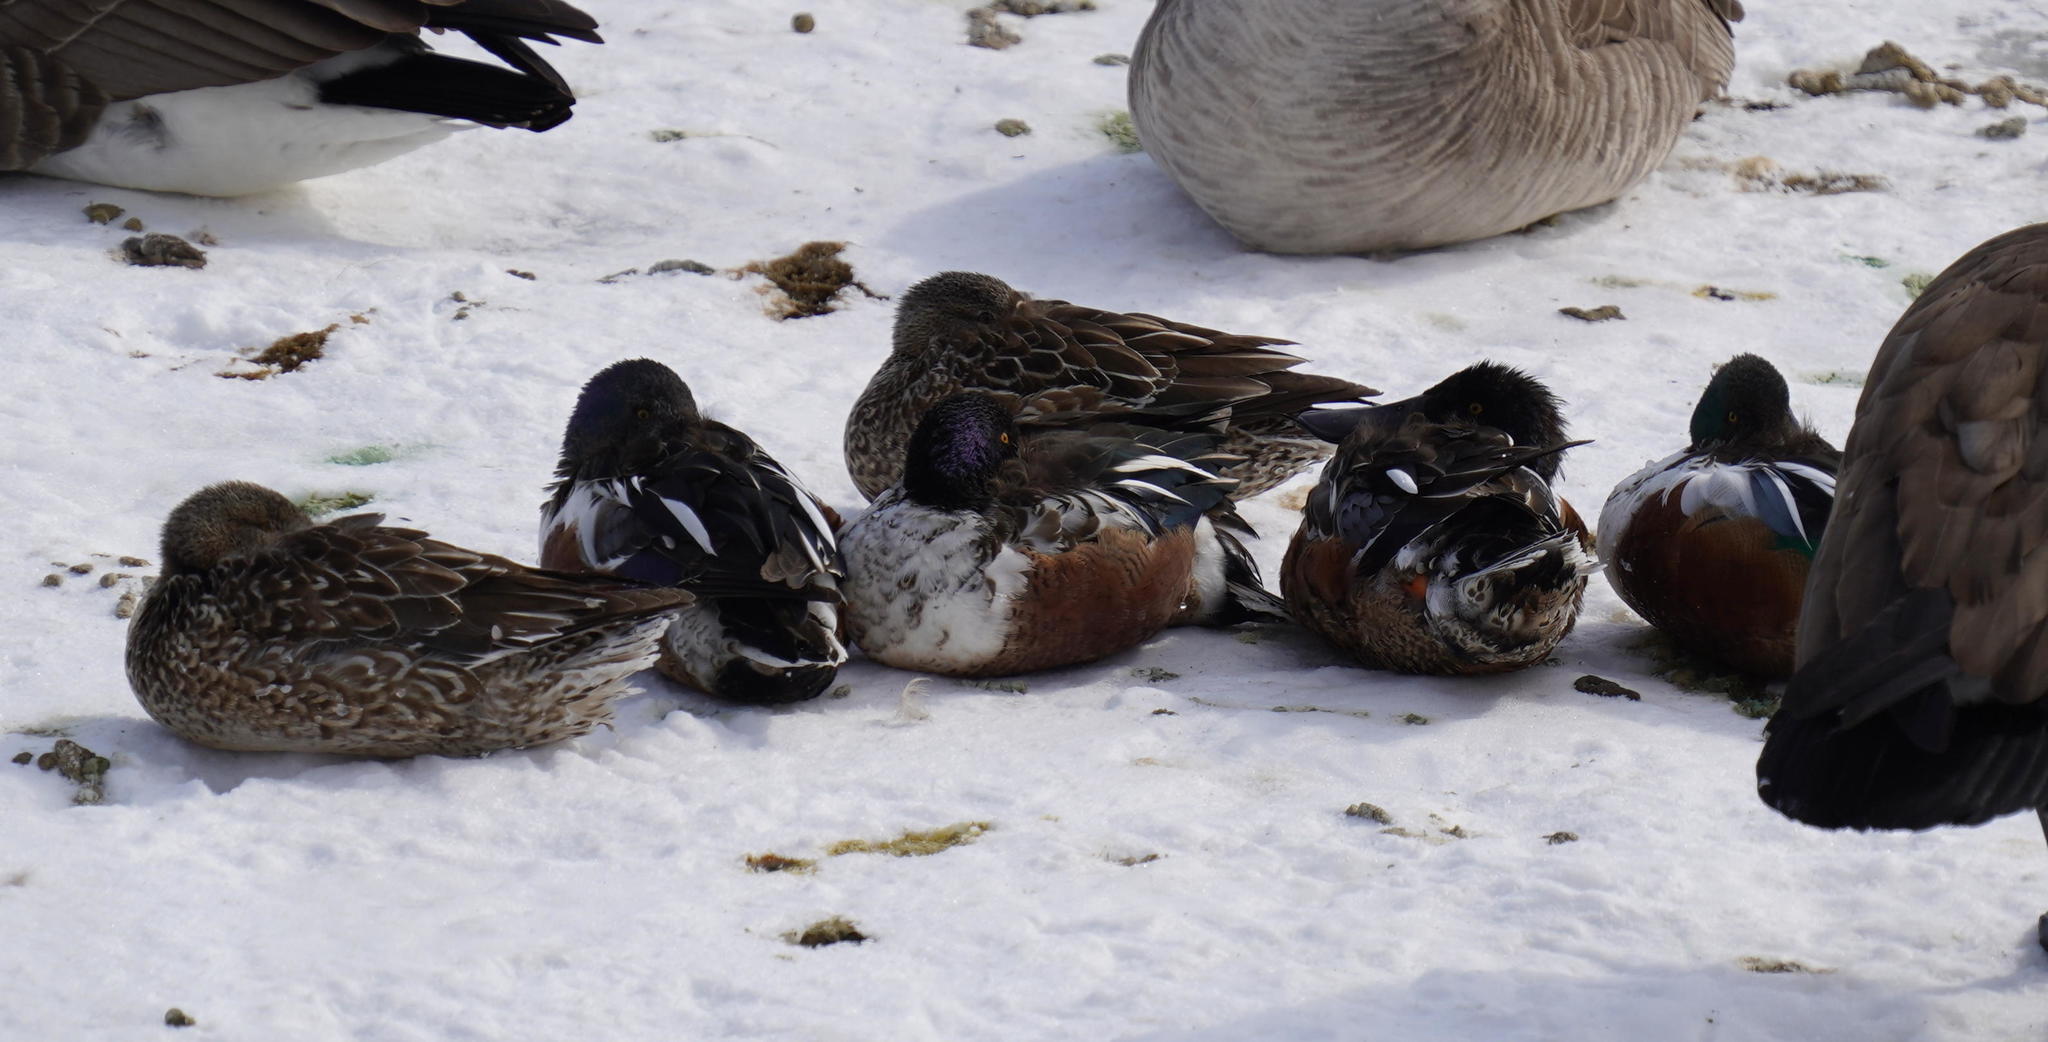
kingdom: Animalia
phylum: Chordata
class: Aves
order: Anseriformes
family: Anatidae
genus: Spatula
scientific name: Spatula clypeata
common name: Northern shoveler
